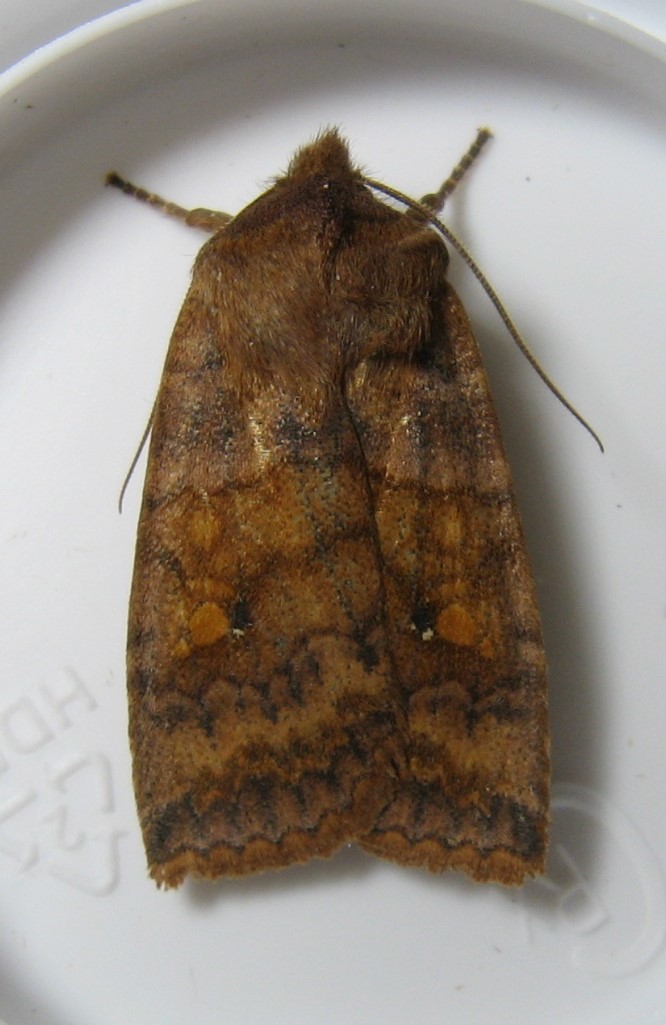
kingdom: Animalia
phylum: Arthropoda
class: Insecta
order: Lepidoptera
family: Noctuidae
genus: Eupsilia
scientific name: Eupsilia tristigmata
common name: Three-spotted sallow
